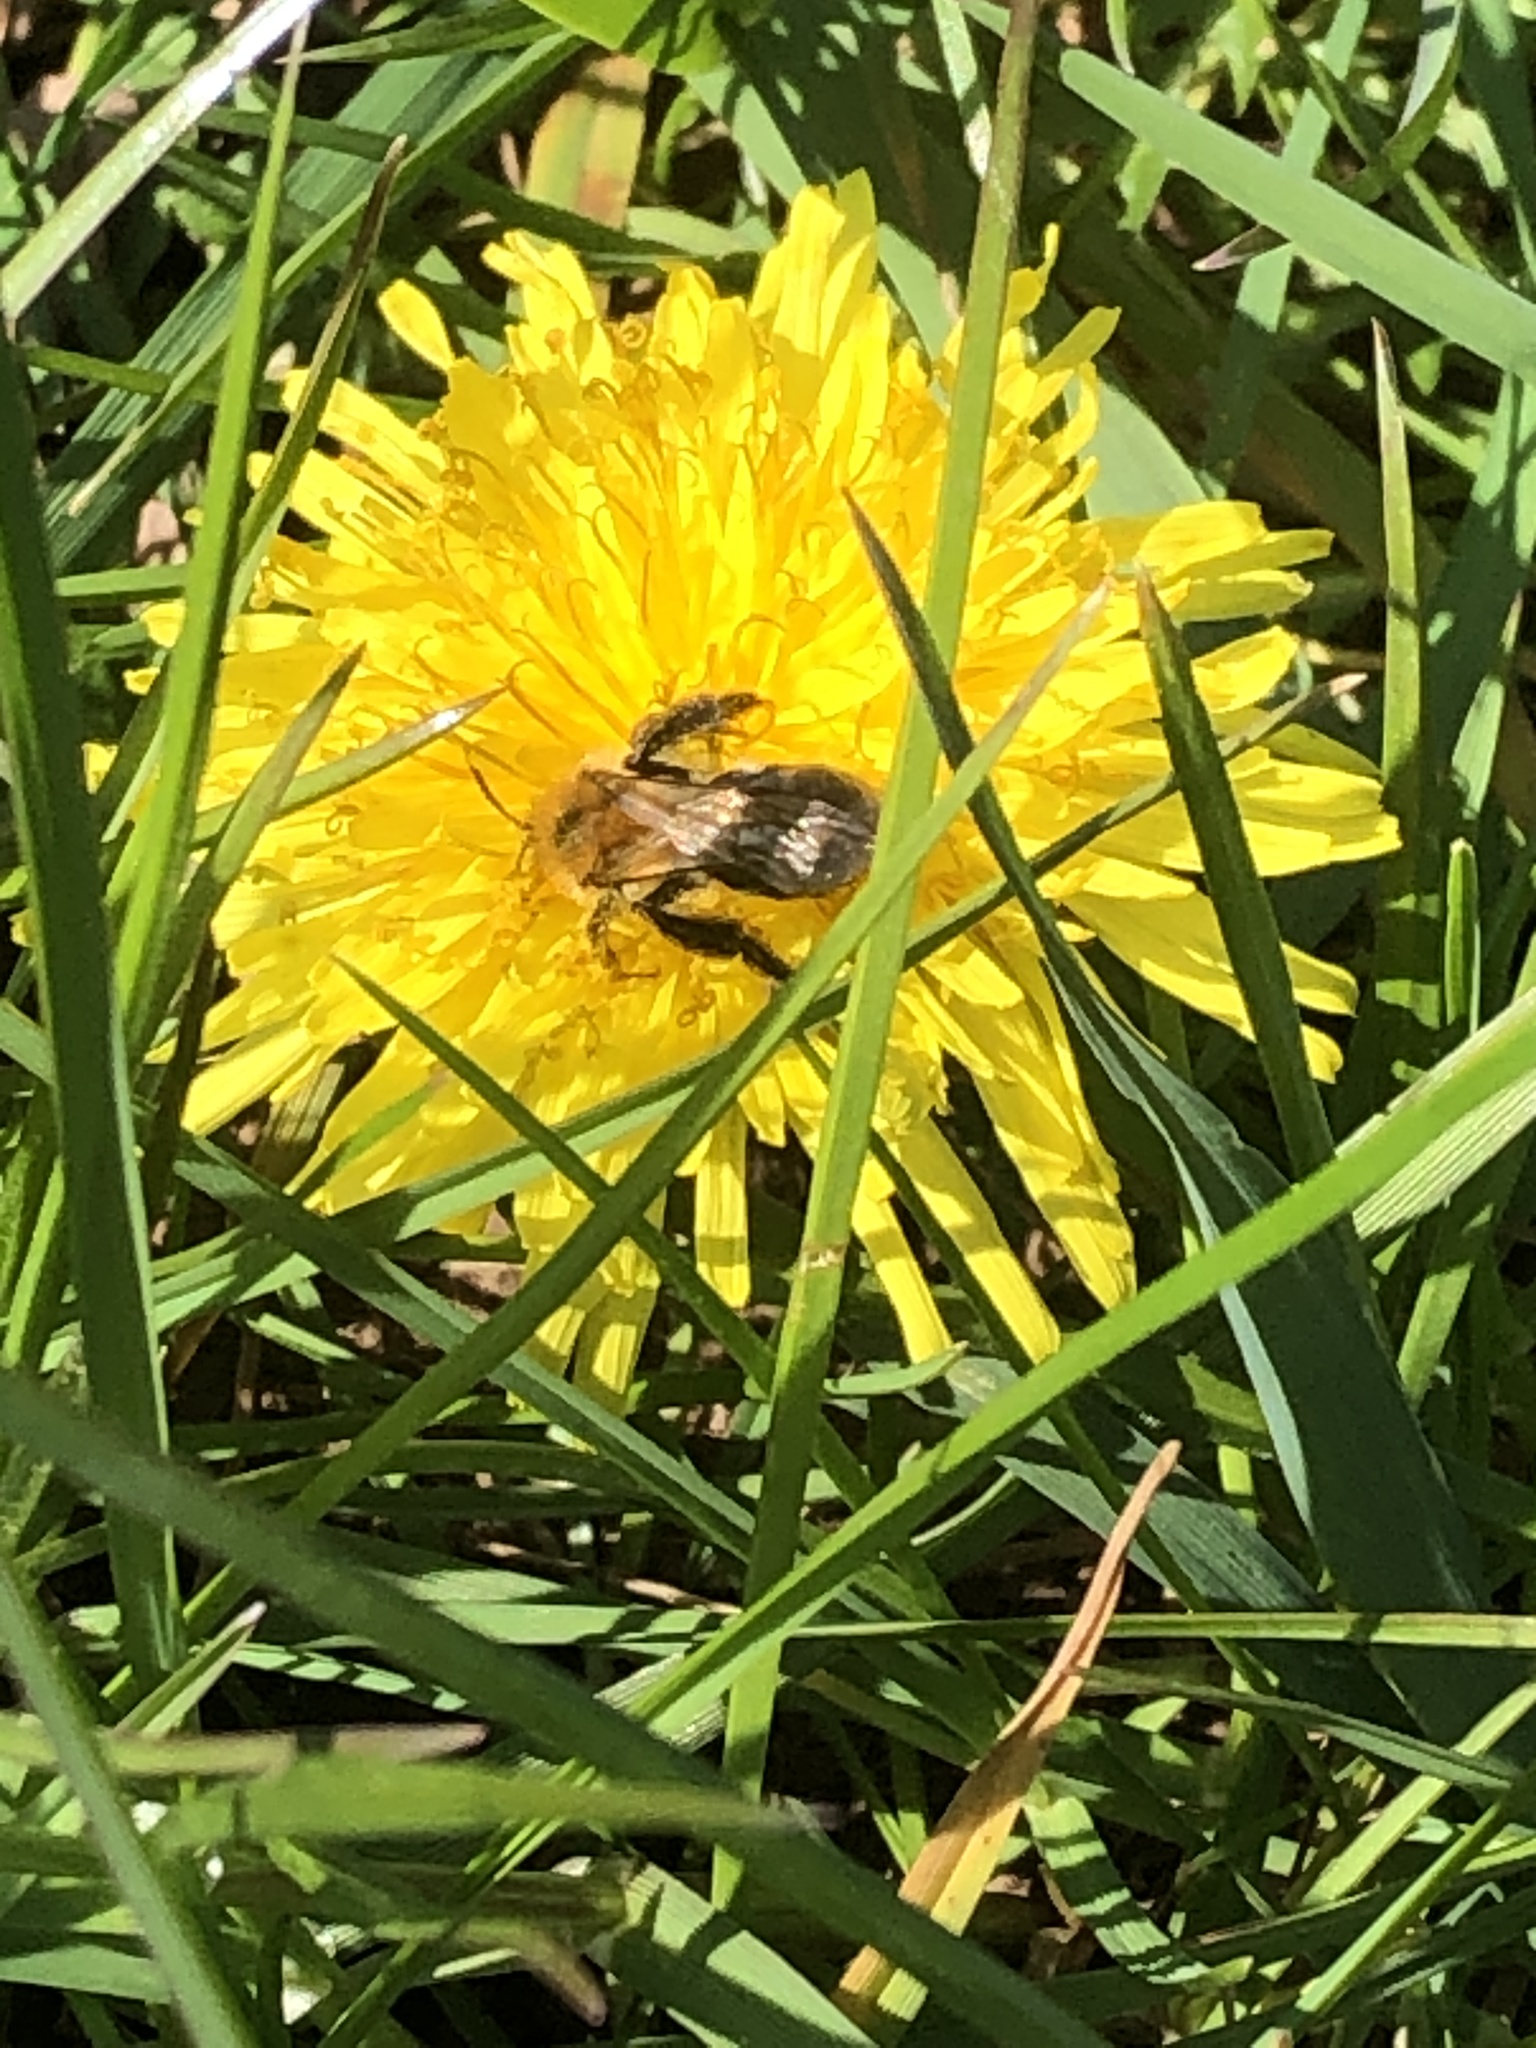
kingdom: Animalia
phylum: Arthropoda
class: Insecta
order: Hymenoptera
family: Andrenidae
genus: Andrena
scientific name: Andrena nitida
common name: Grey-patched mining bee
